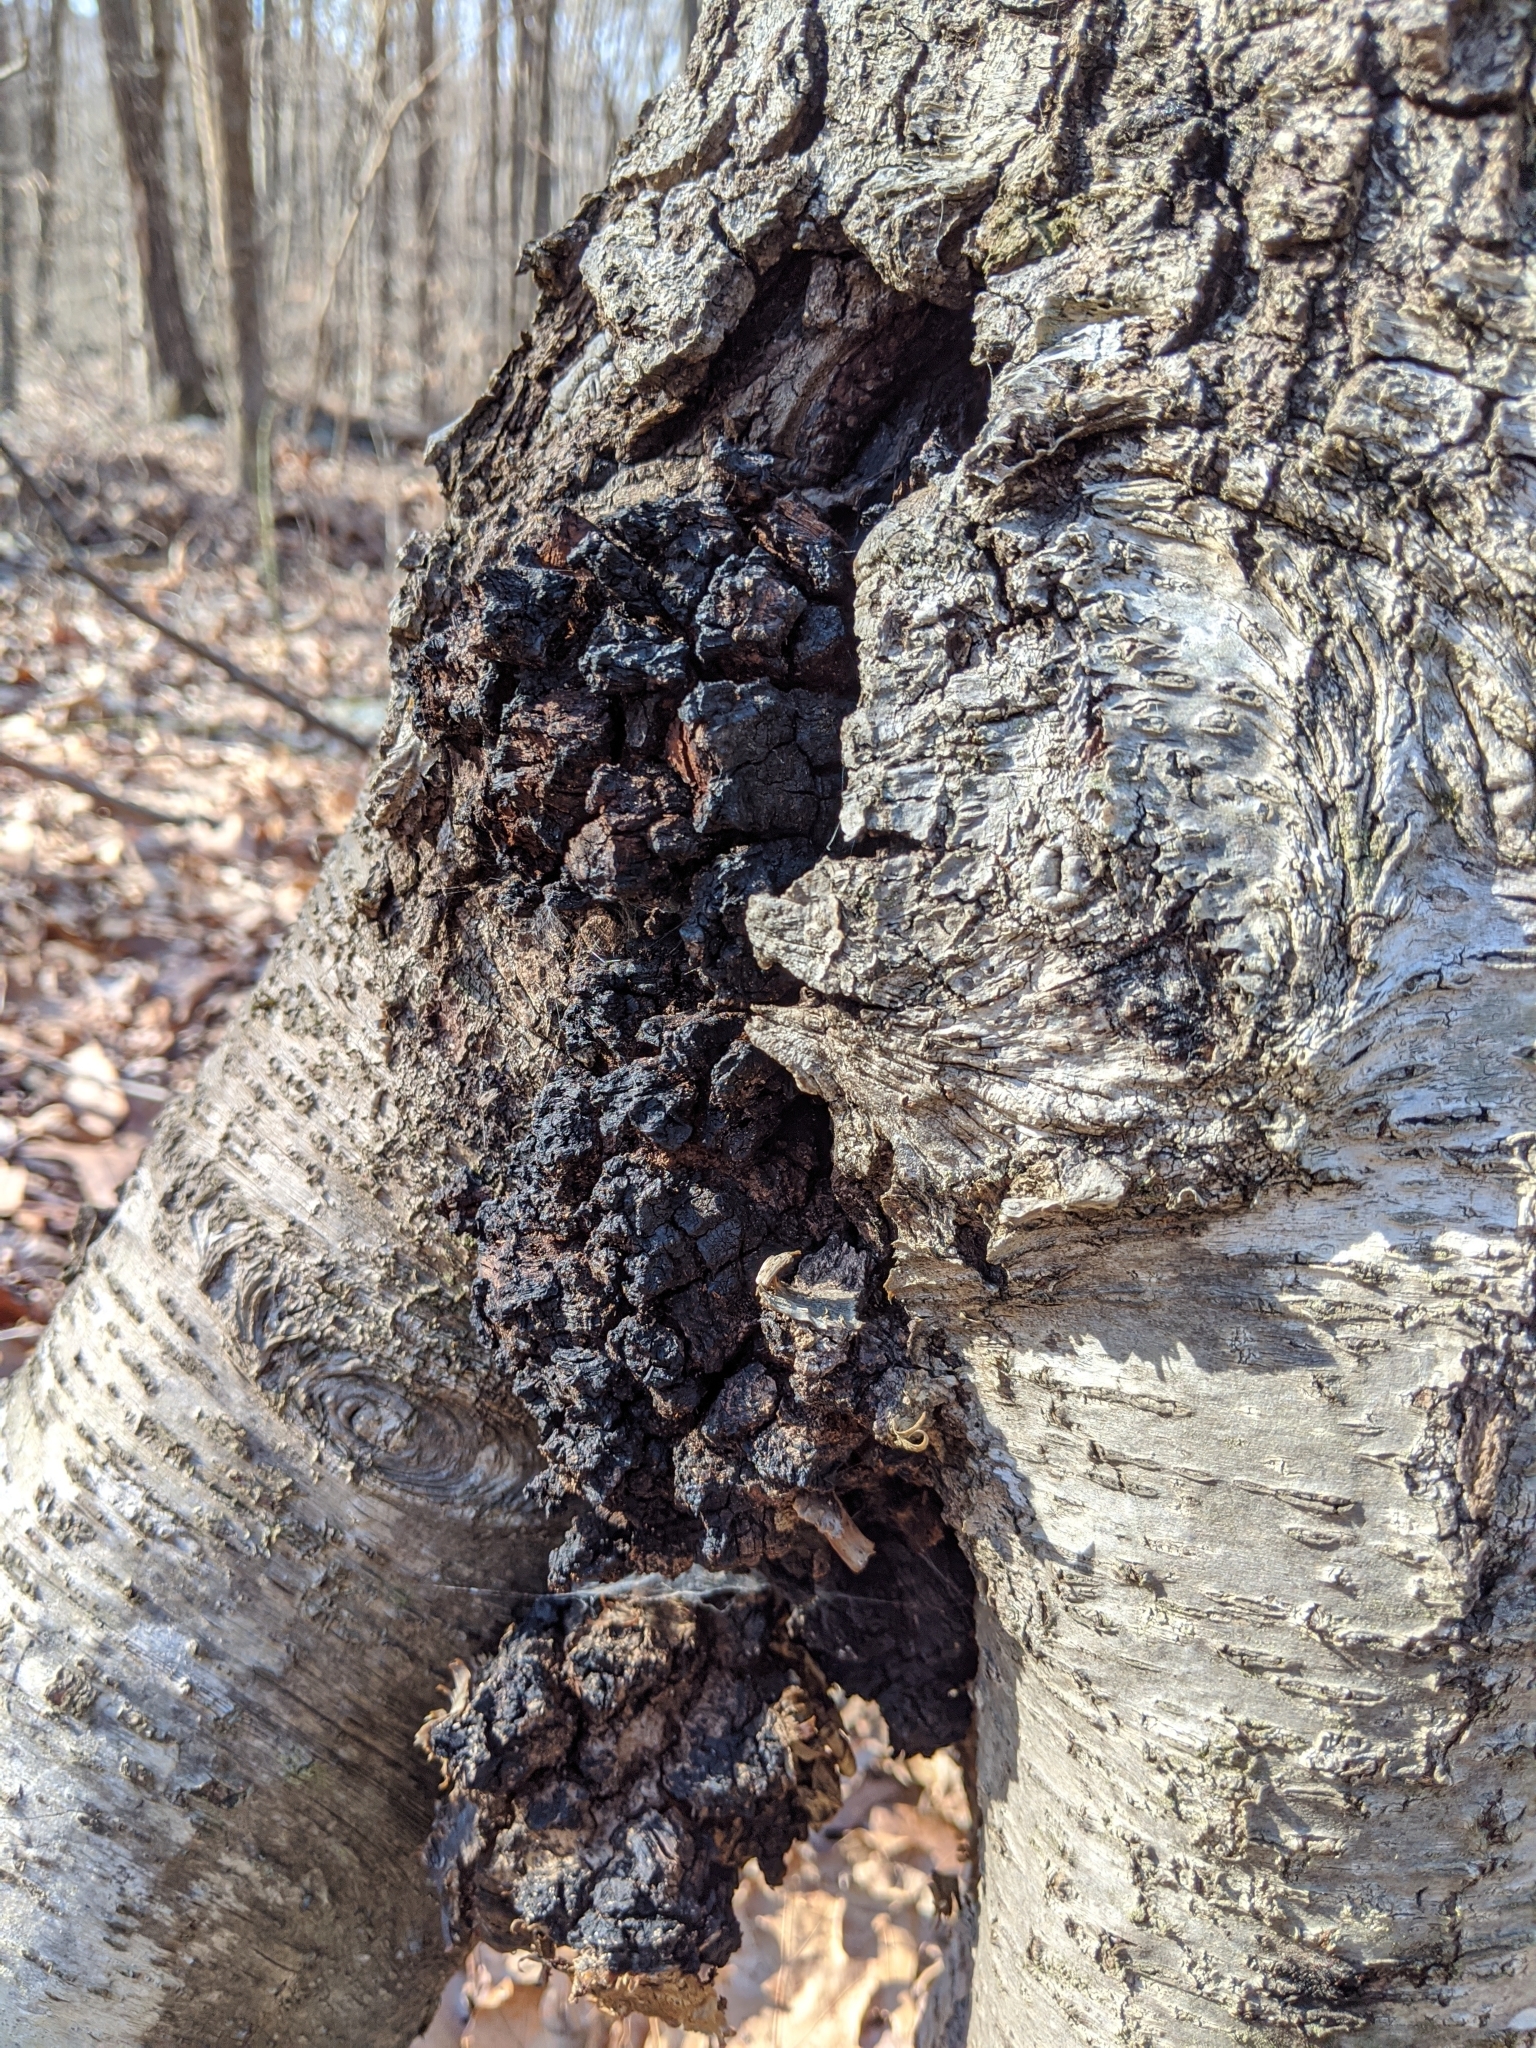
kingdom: Fungi
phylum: Basidiomycota
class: Agaricomycetes
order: Hymenochaetales
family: Hymenochaetaceae
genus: Inonotus
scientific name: Inonotus obliquus
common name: Chaga
